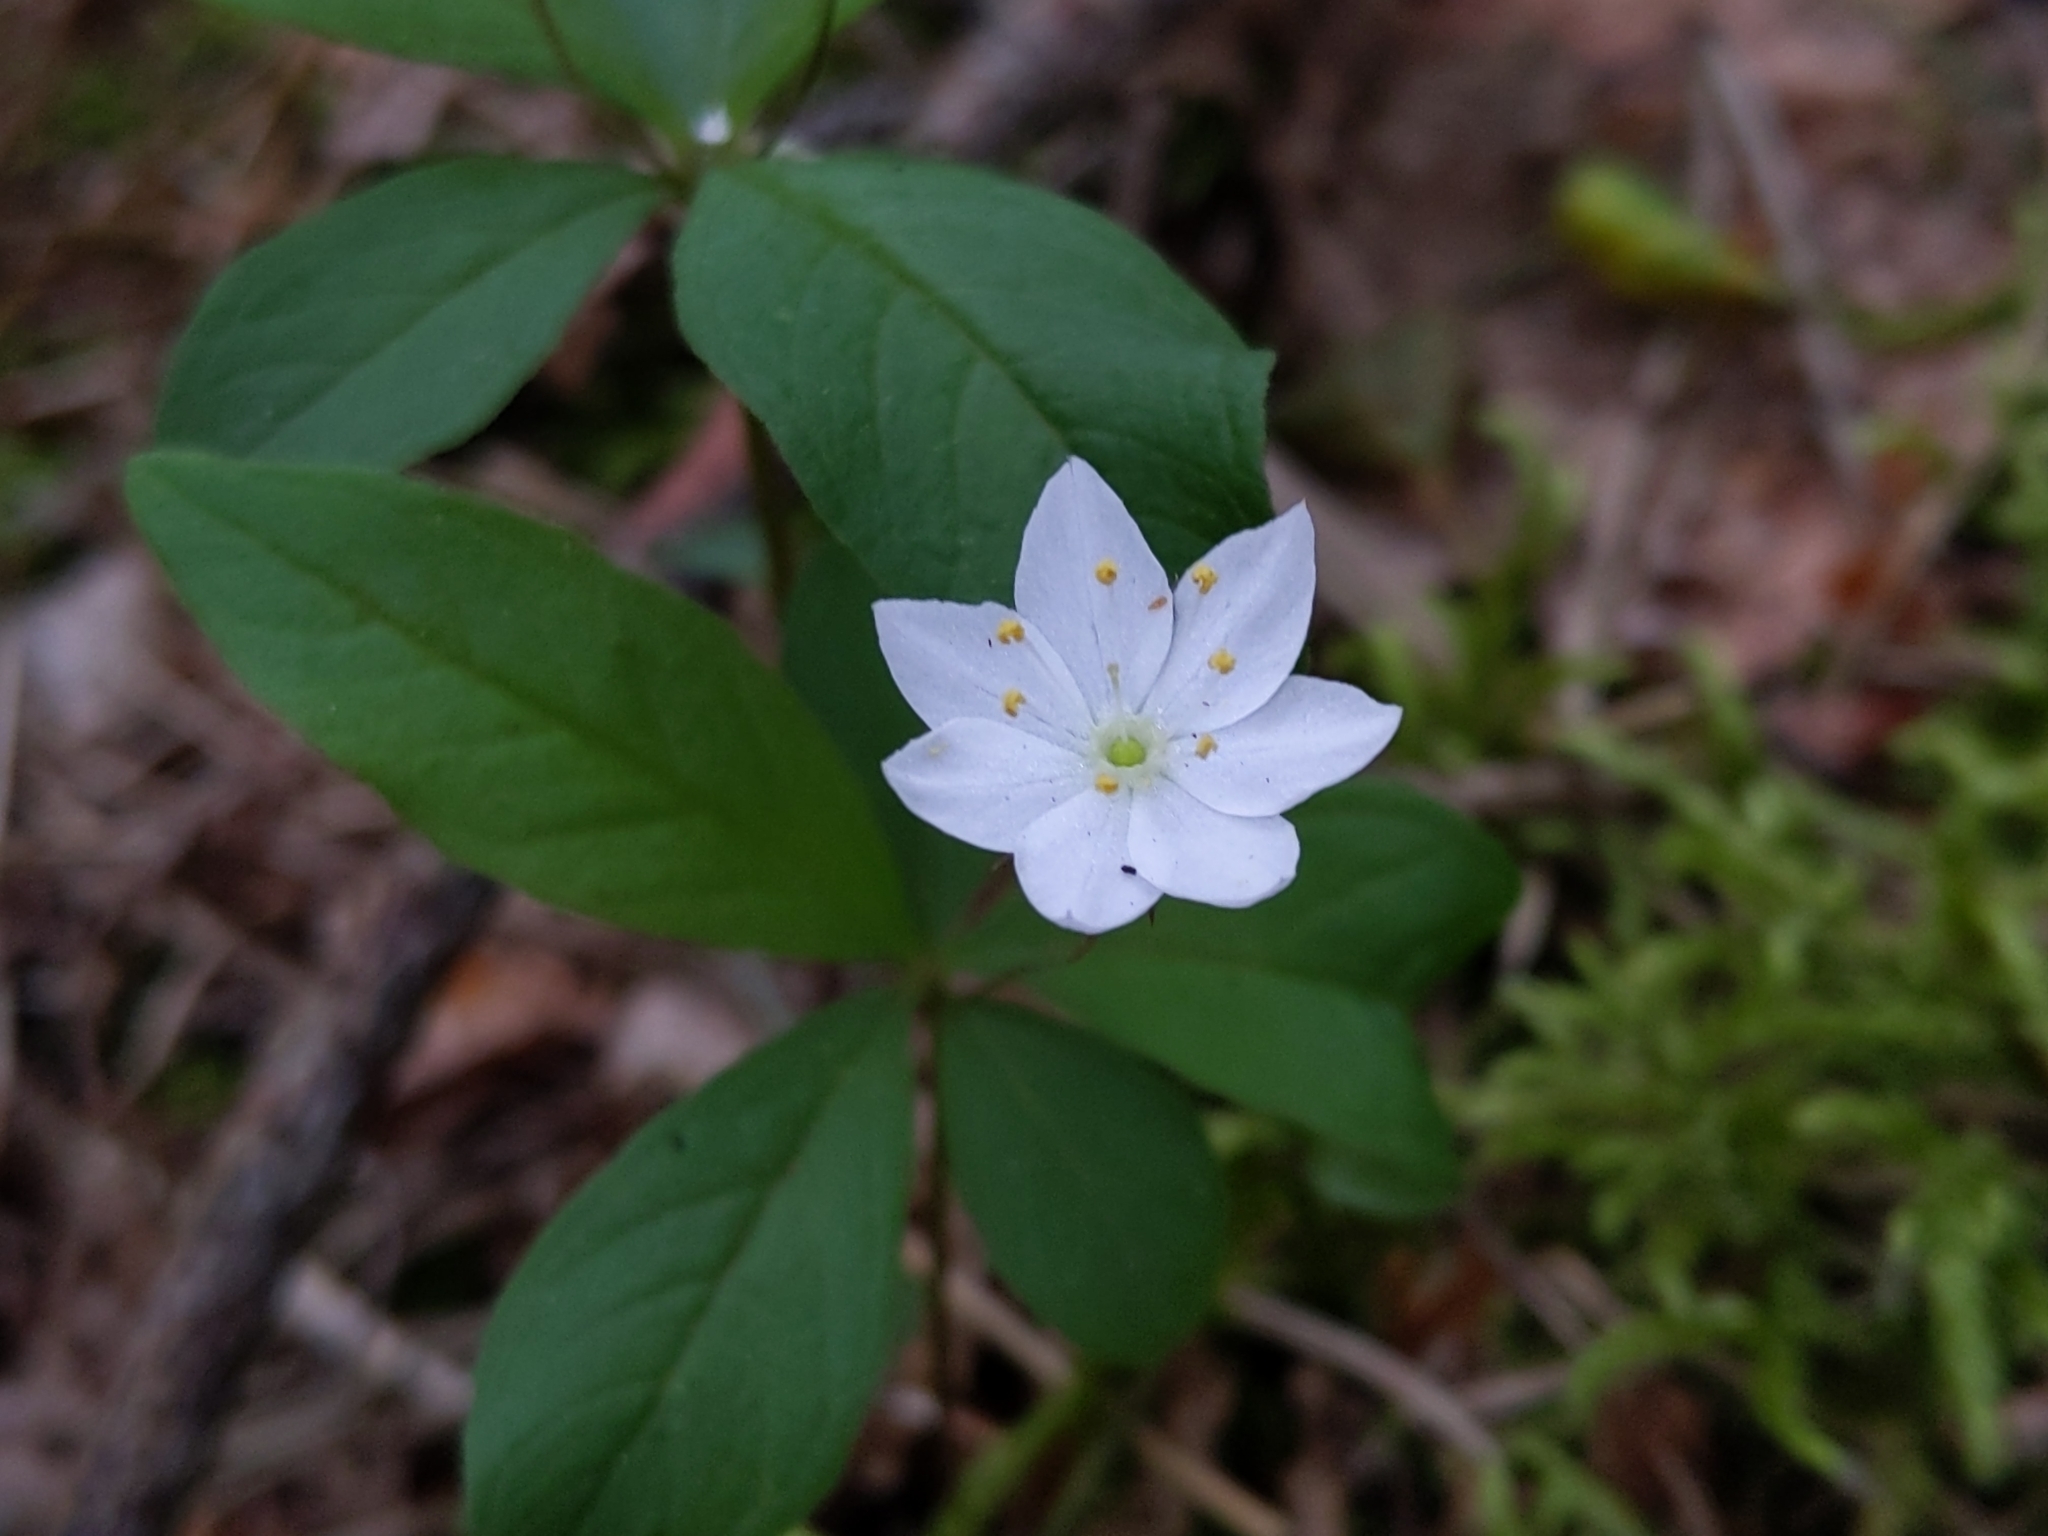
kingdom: Plantae
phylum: Tracheophyta
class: Magnoliopsida
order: Ericales
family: Primulaceae
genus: Lysimachia
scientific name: Lysimachia europaea
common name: Arctic starflower
